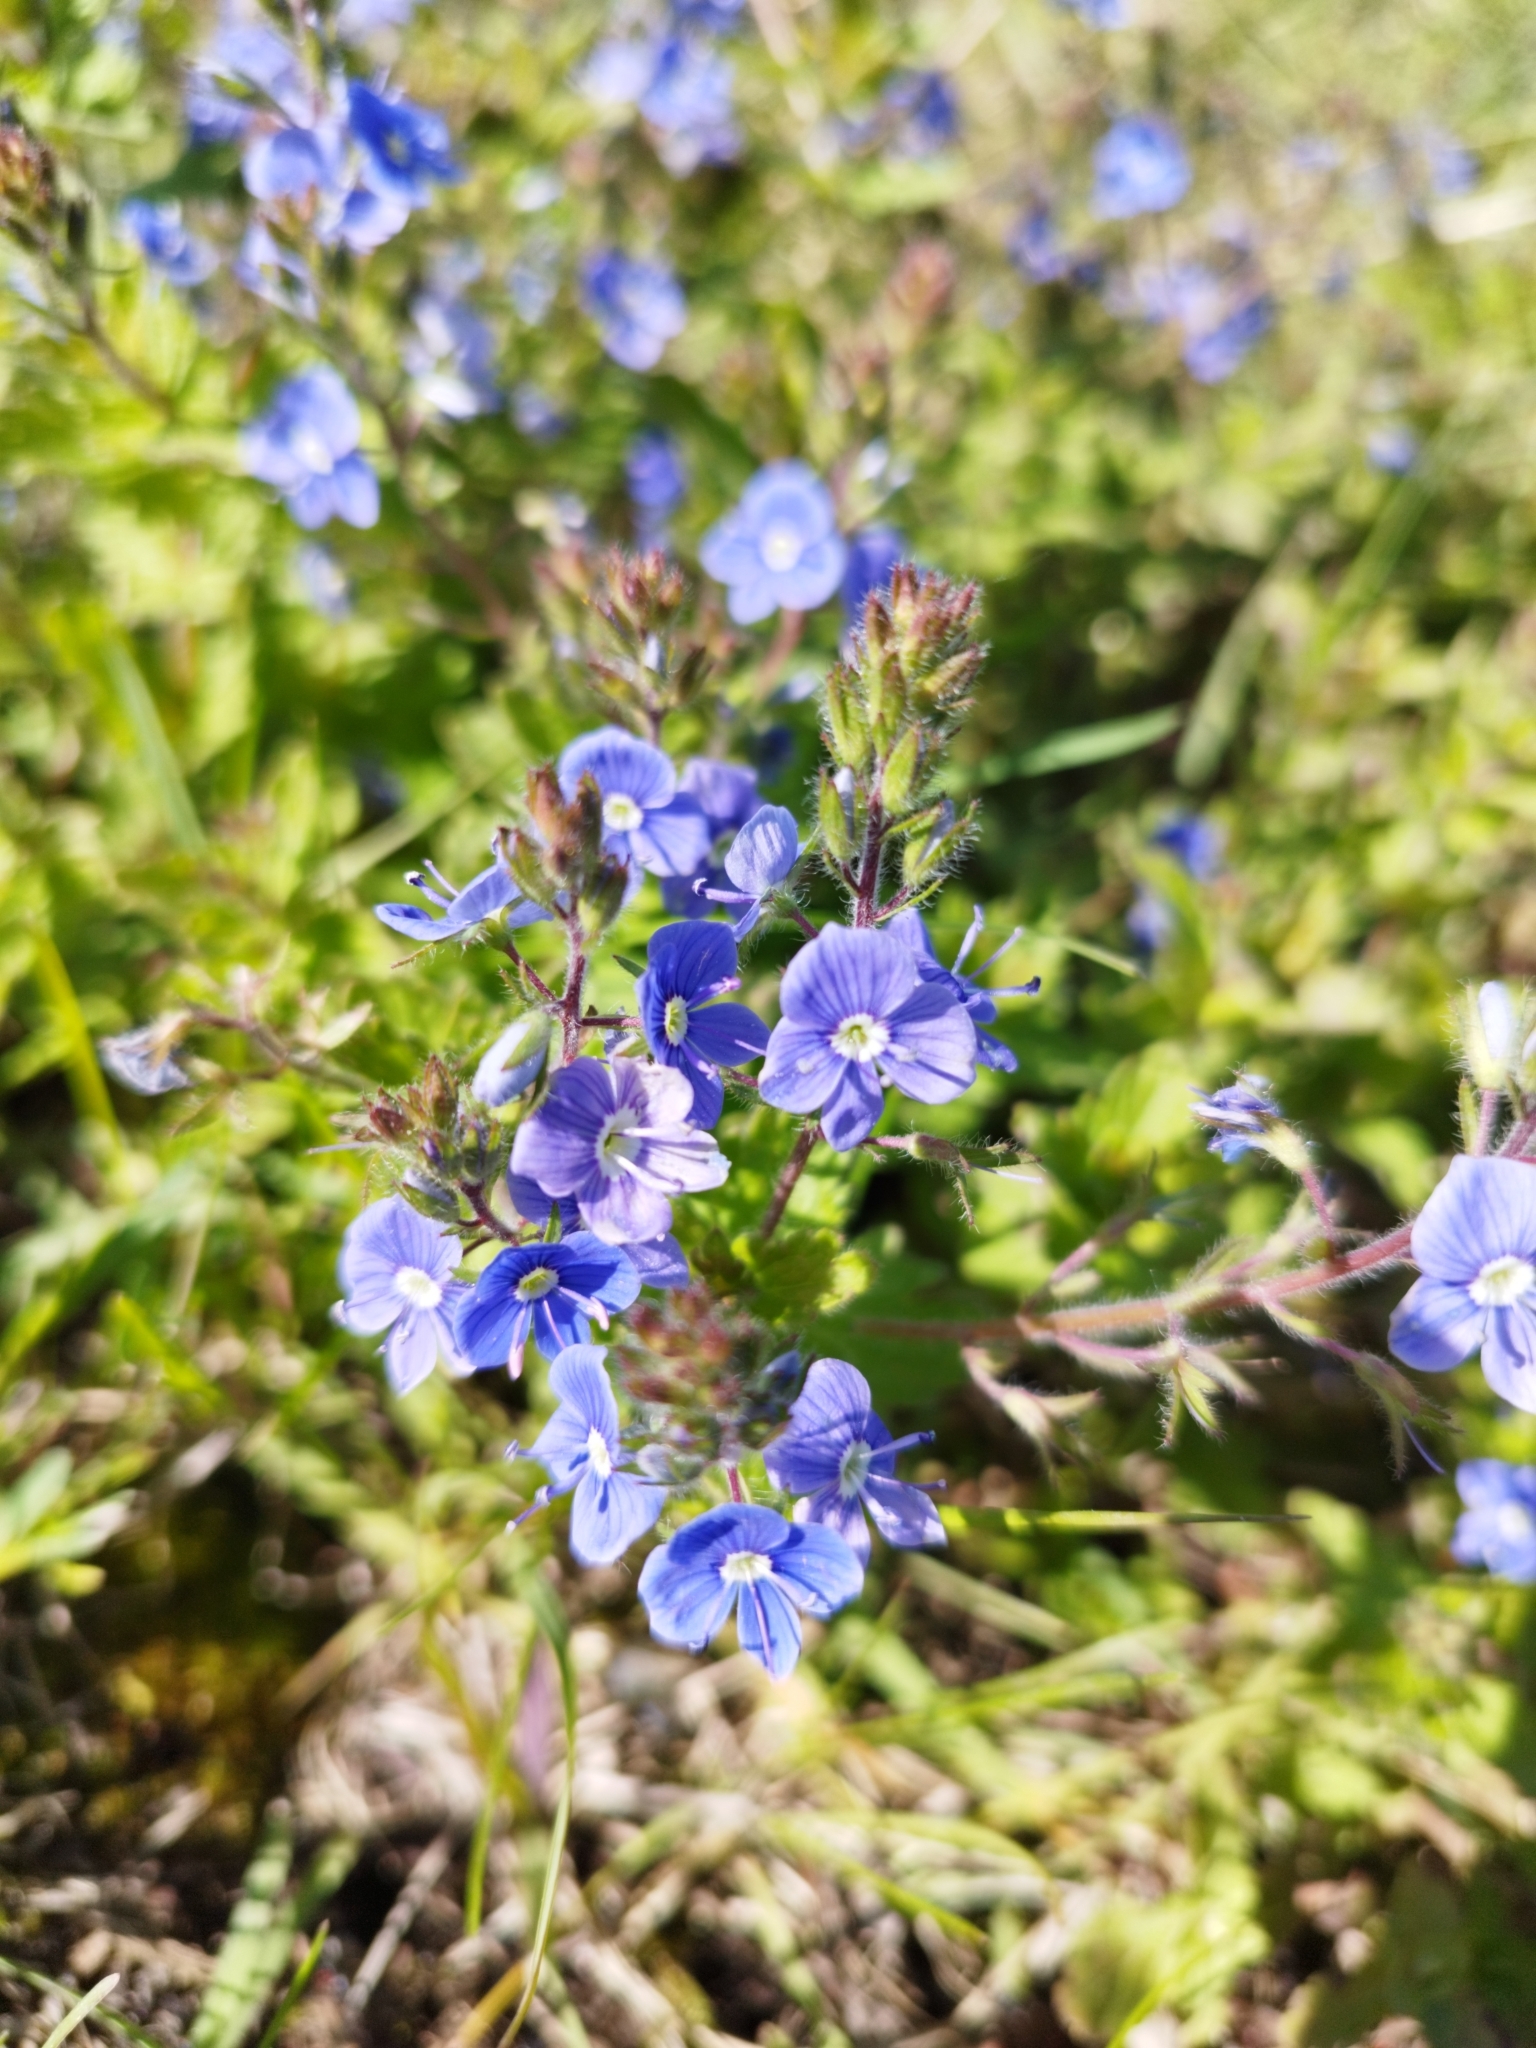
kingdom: Plantae
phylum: Tracheophyta
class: Magnoliopsida
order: Lamiales
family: Plantaginaceae
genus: Veronica
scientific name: Veronica chamaedrys
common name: Germander speedwell
